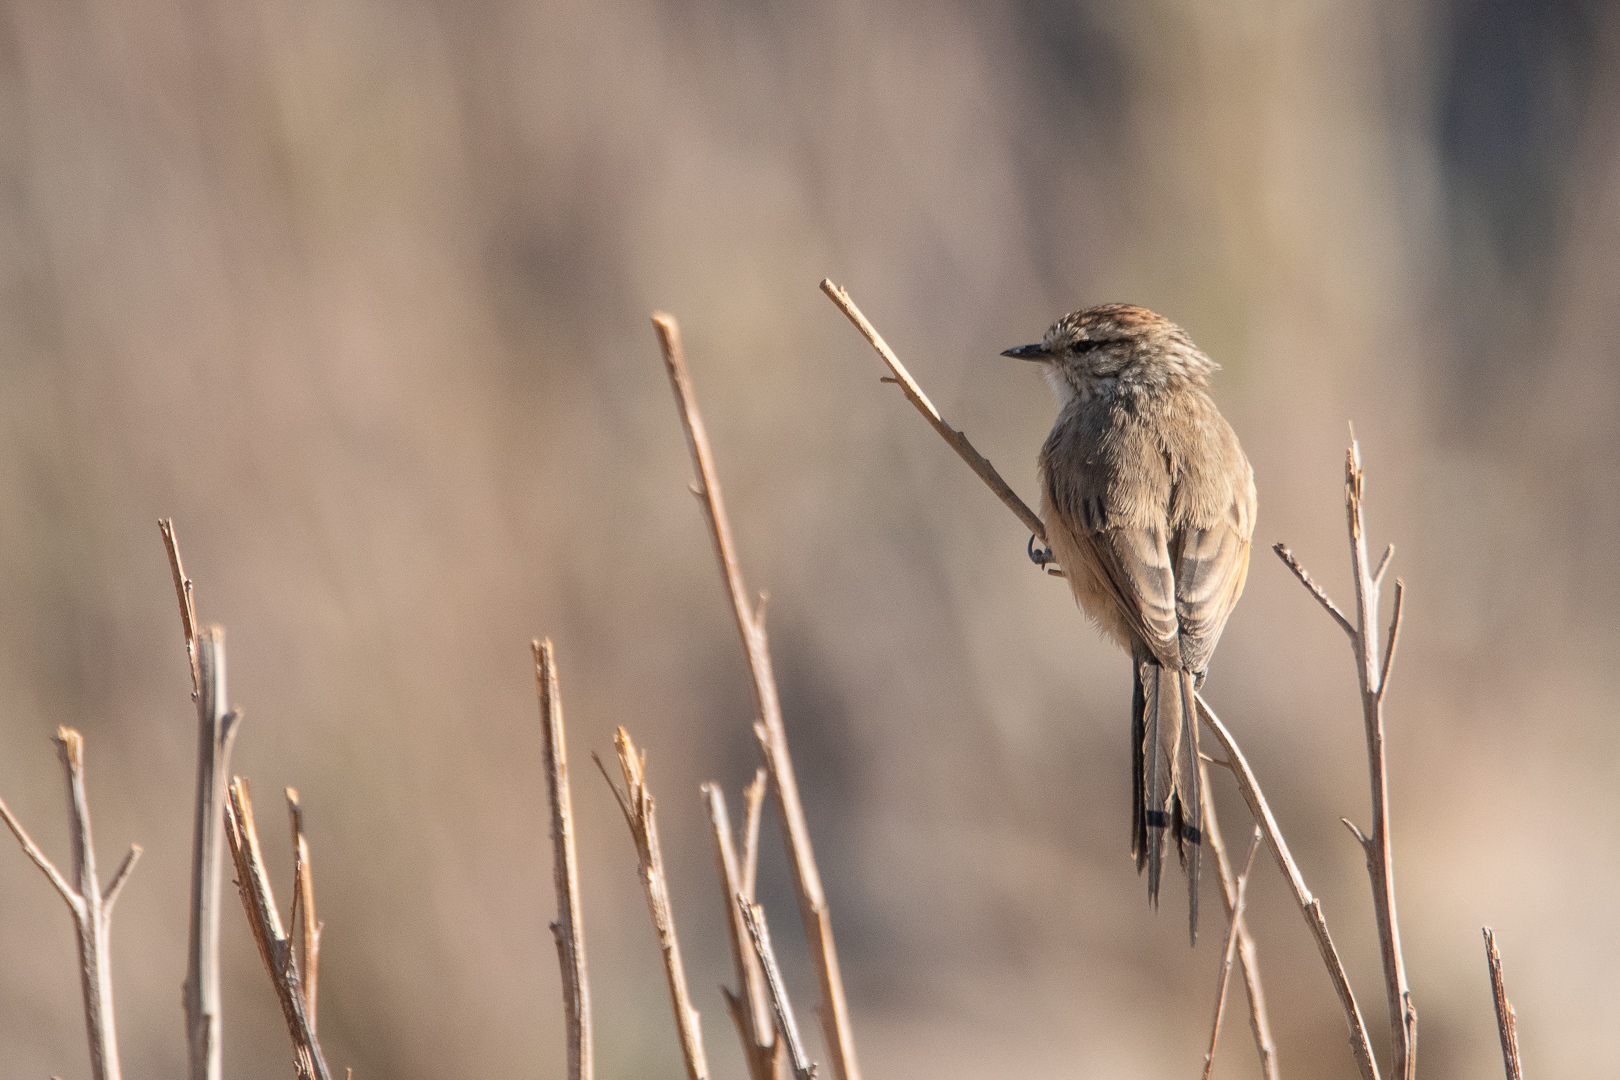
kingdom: Animalia
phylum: Chordata
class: Aves
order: Passeriformes
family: Furnariidae
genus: Leptasthenura
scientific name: Leptasthenura aegithaloides
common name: Plain-mantled tit-spinetail
